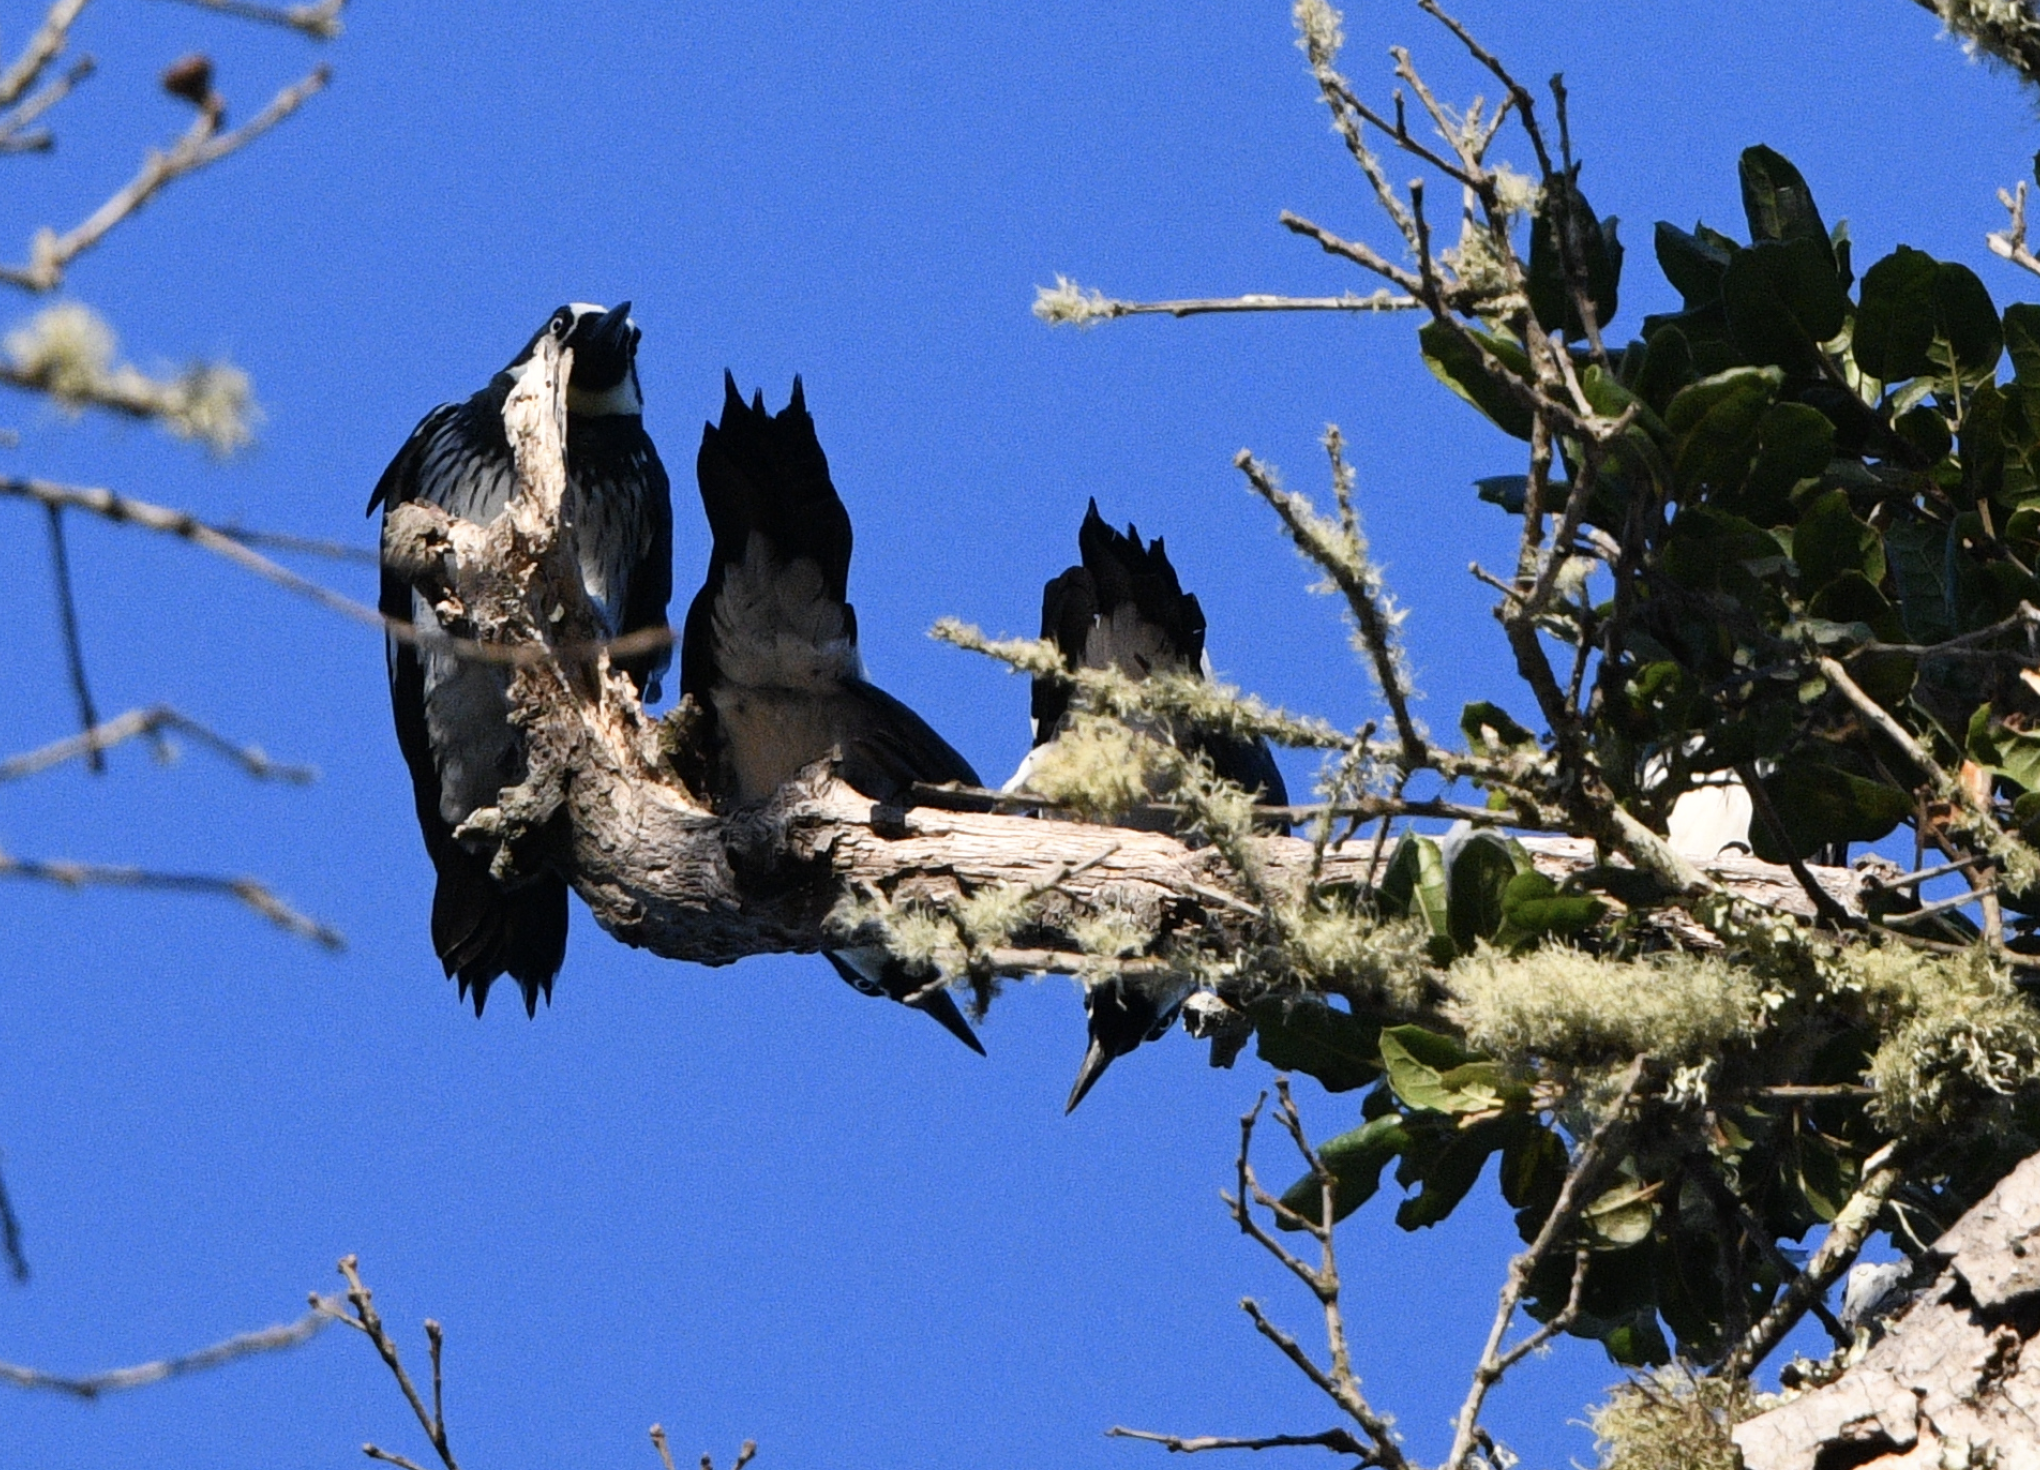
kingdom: Animalia
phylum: Chordata
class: Aves
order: Piciformes
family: Picidae
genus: Melanerpes
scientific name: Melanerpes formicivorus
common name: Acorn woodpecker
